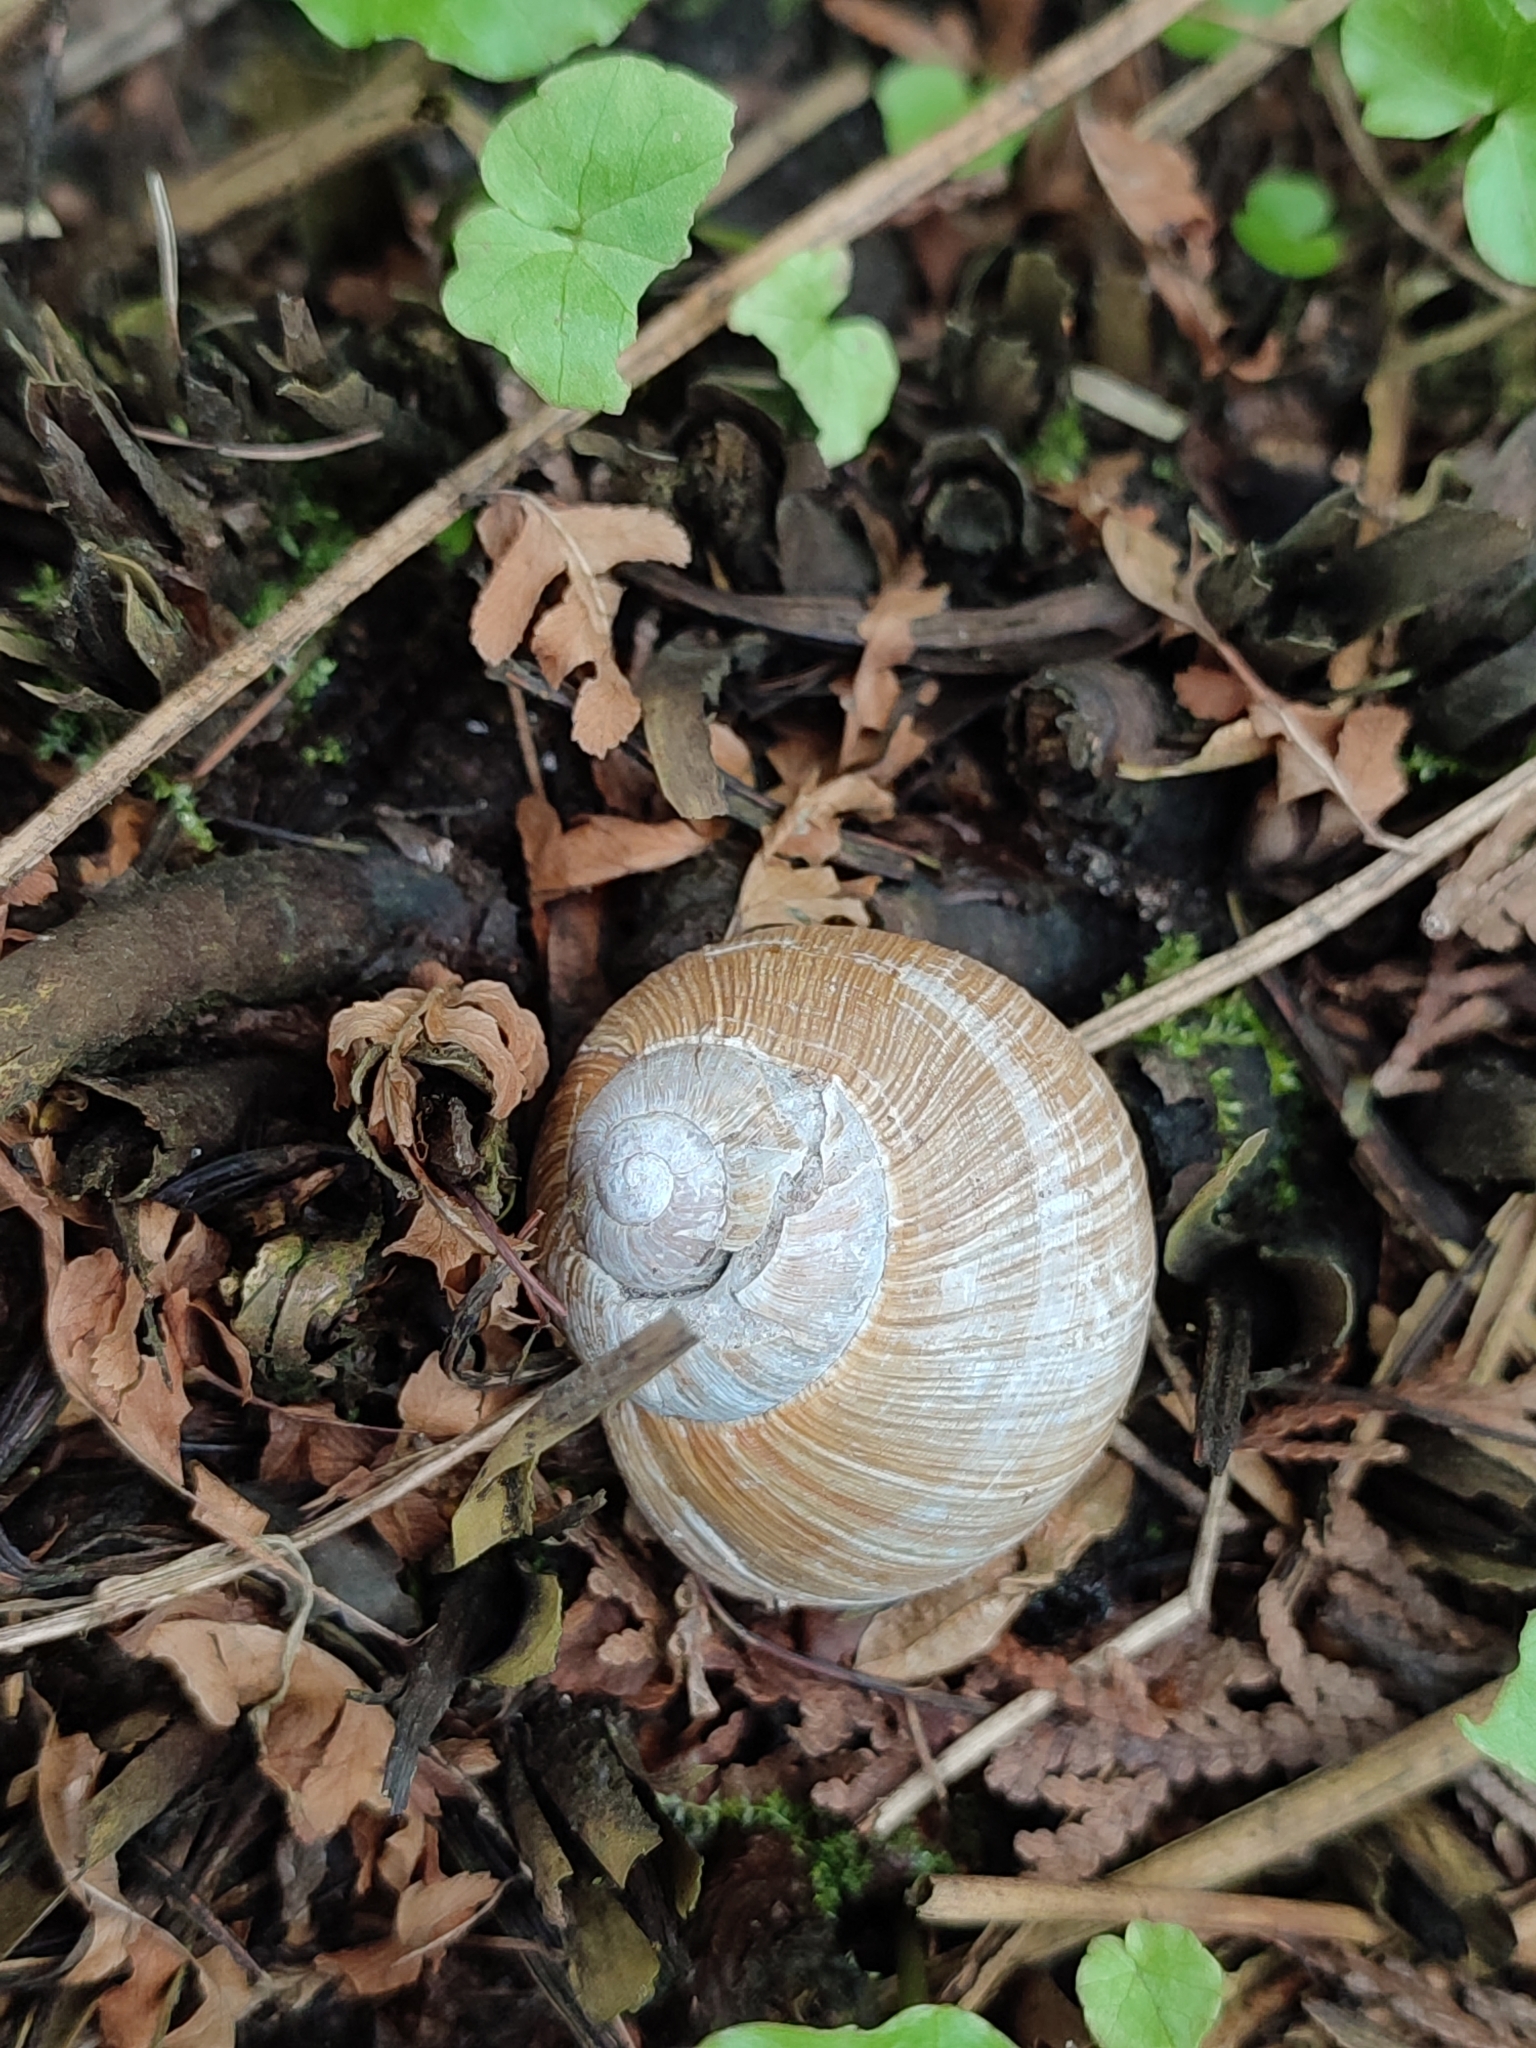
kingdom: Animalia
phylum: Mollusca
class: Gastropoda
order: Stylommatophora
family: Helicidae
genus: Helix
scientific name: Helix pomatia
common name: Roman snail
